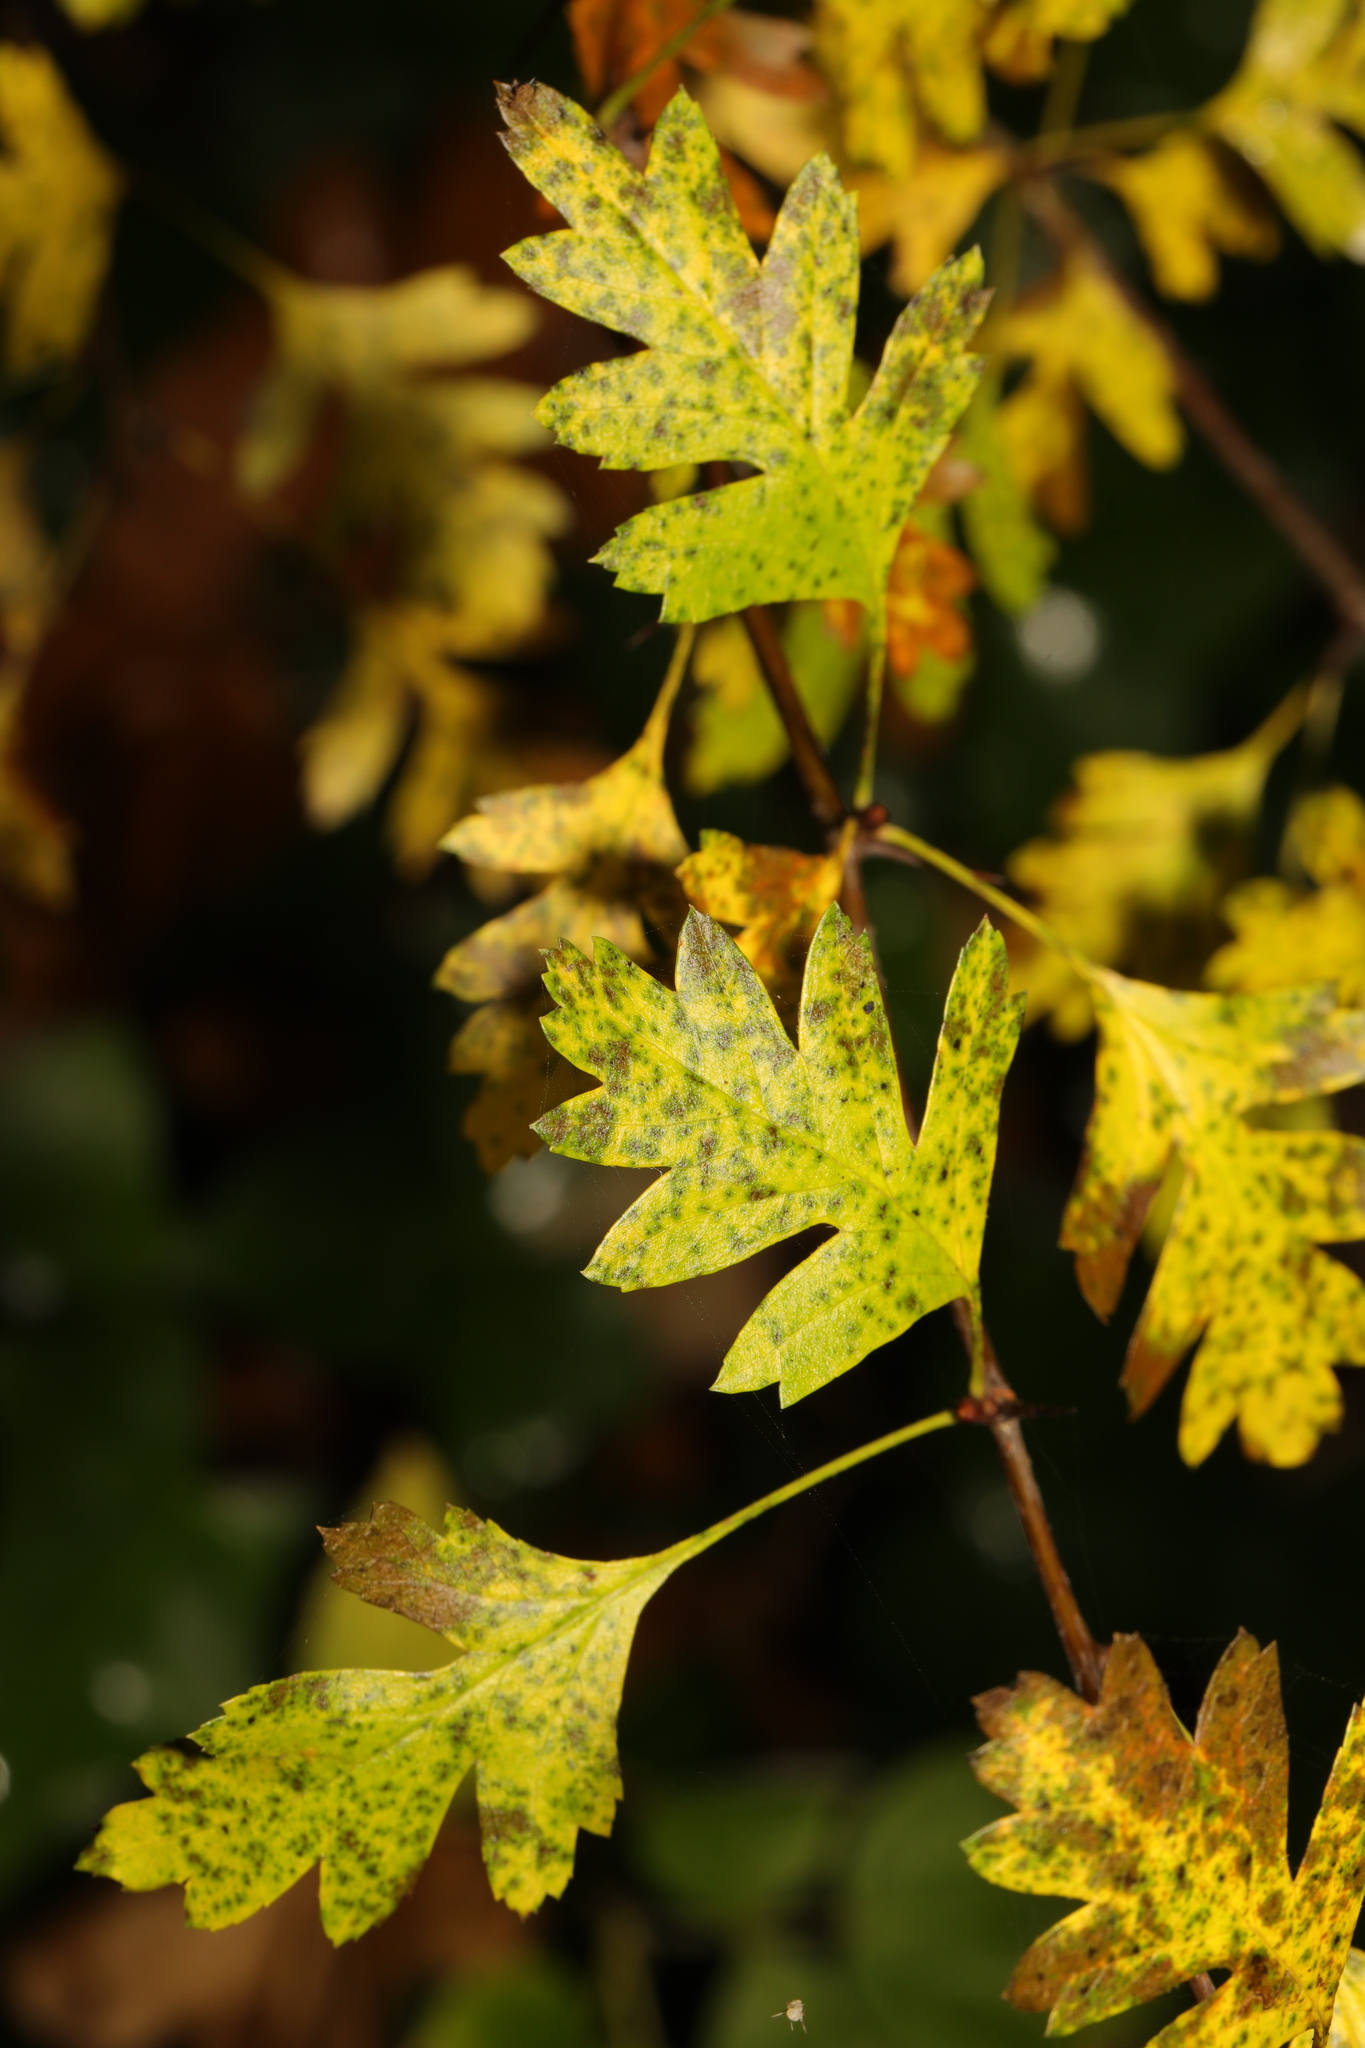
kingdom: Plantae
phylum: Tracheophyta
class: Magnoliopsida
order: Rosales
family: Rosaceae
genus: Crataegus
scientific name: Crataegus monogyna
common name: Hawthorn
